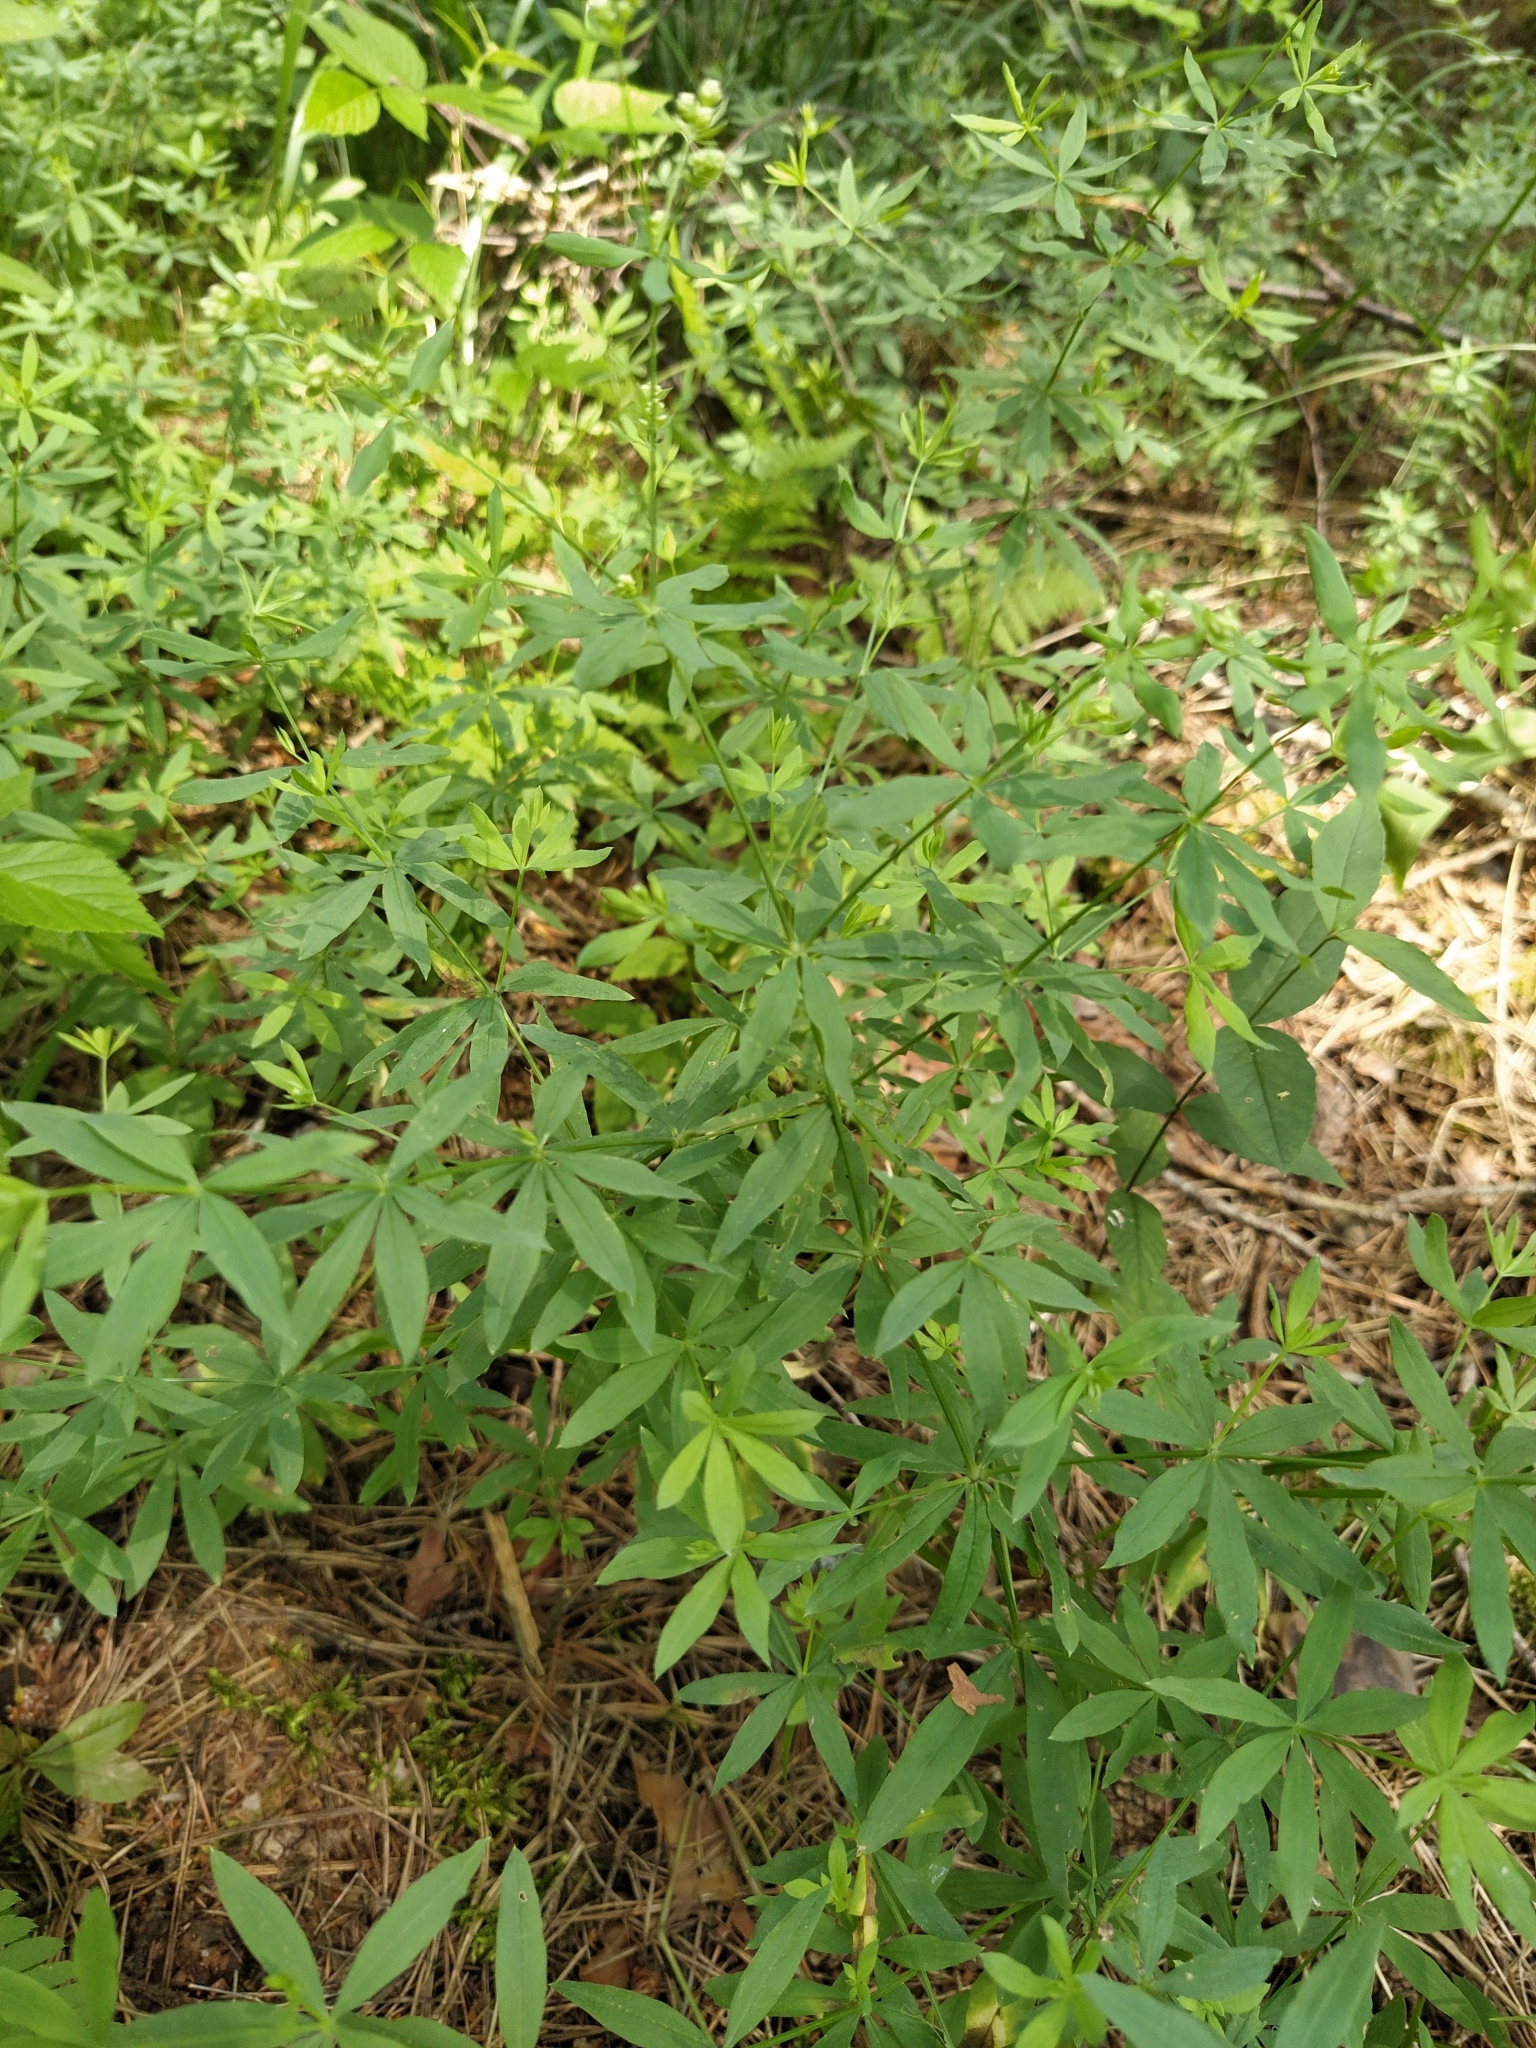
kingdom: Plantae
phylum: Tracheophyta
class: Magnoliopsida
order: Gentianales
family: Rubiaceae
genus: Galium
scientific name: Galium intermedium
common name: Bedstraw
